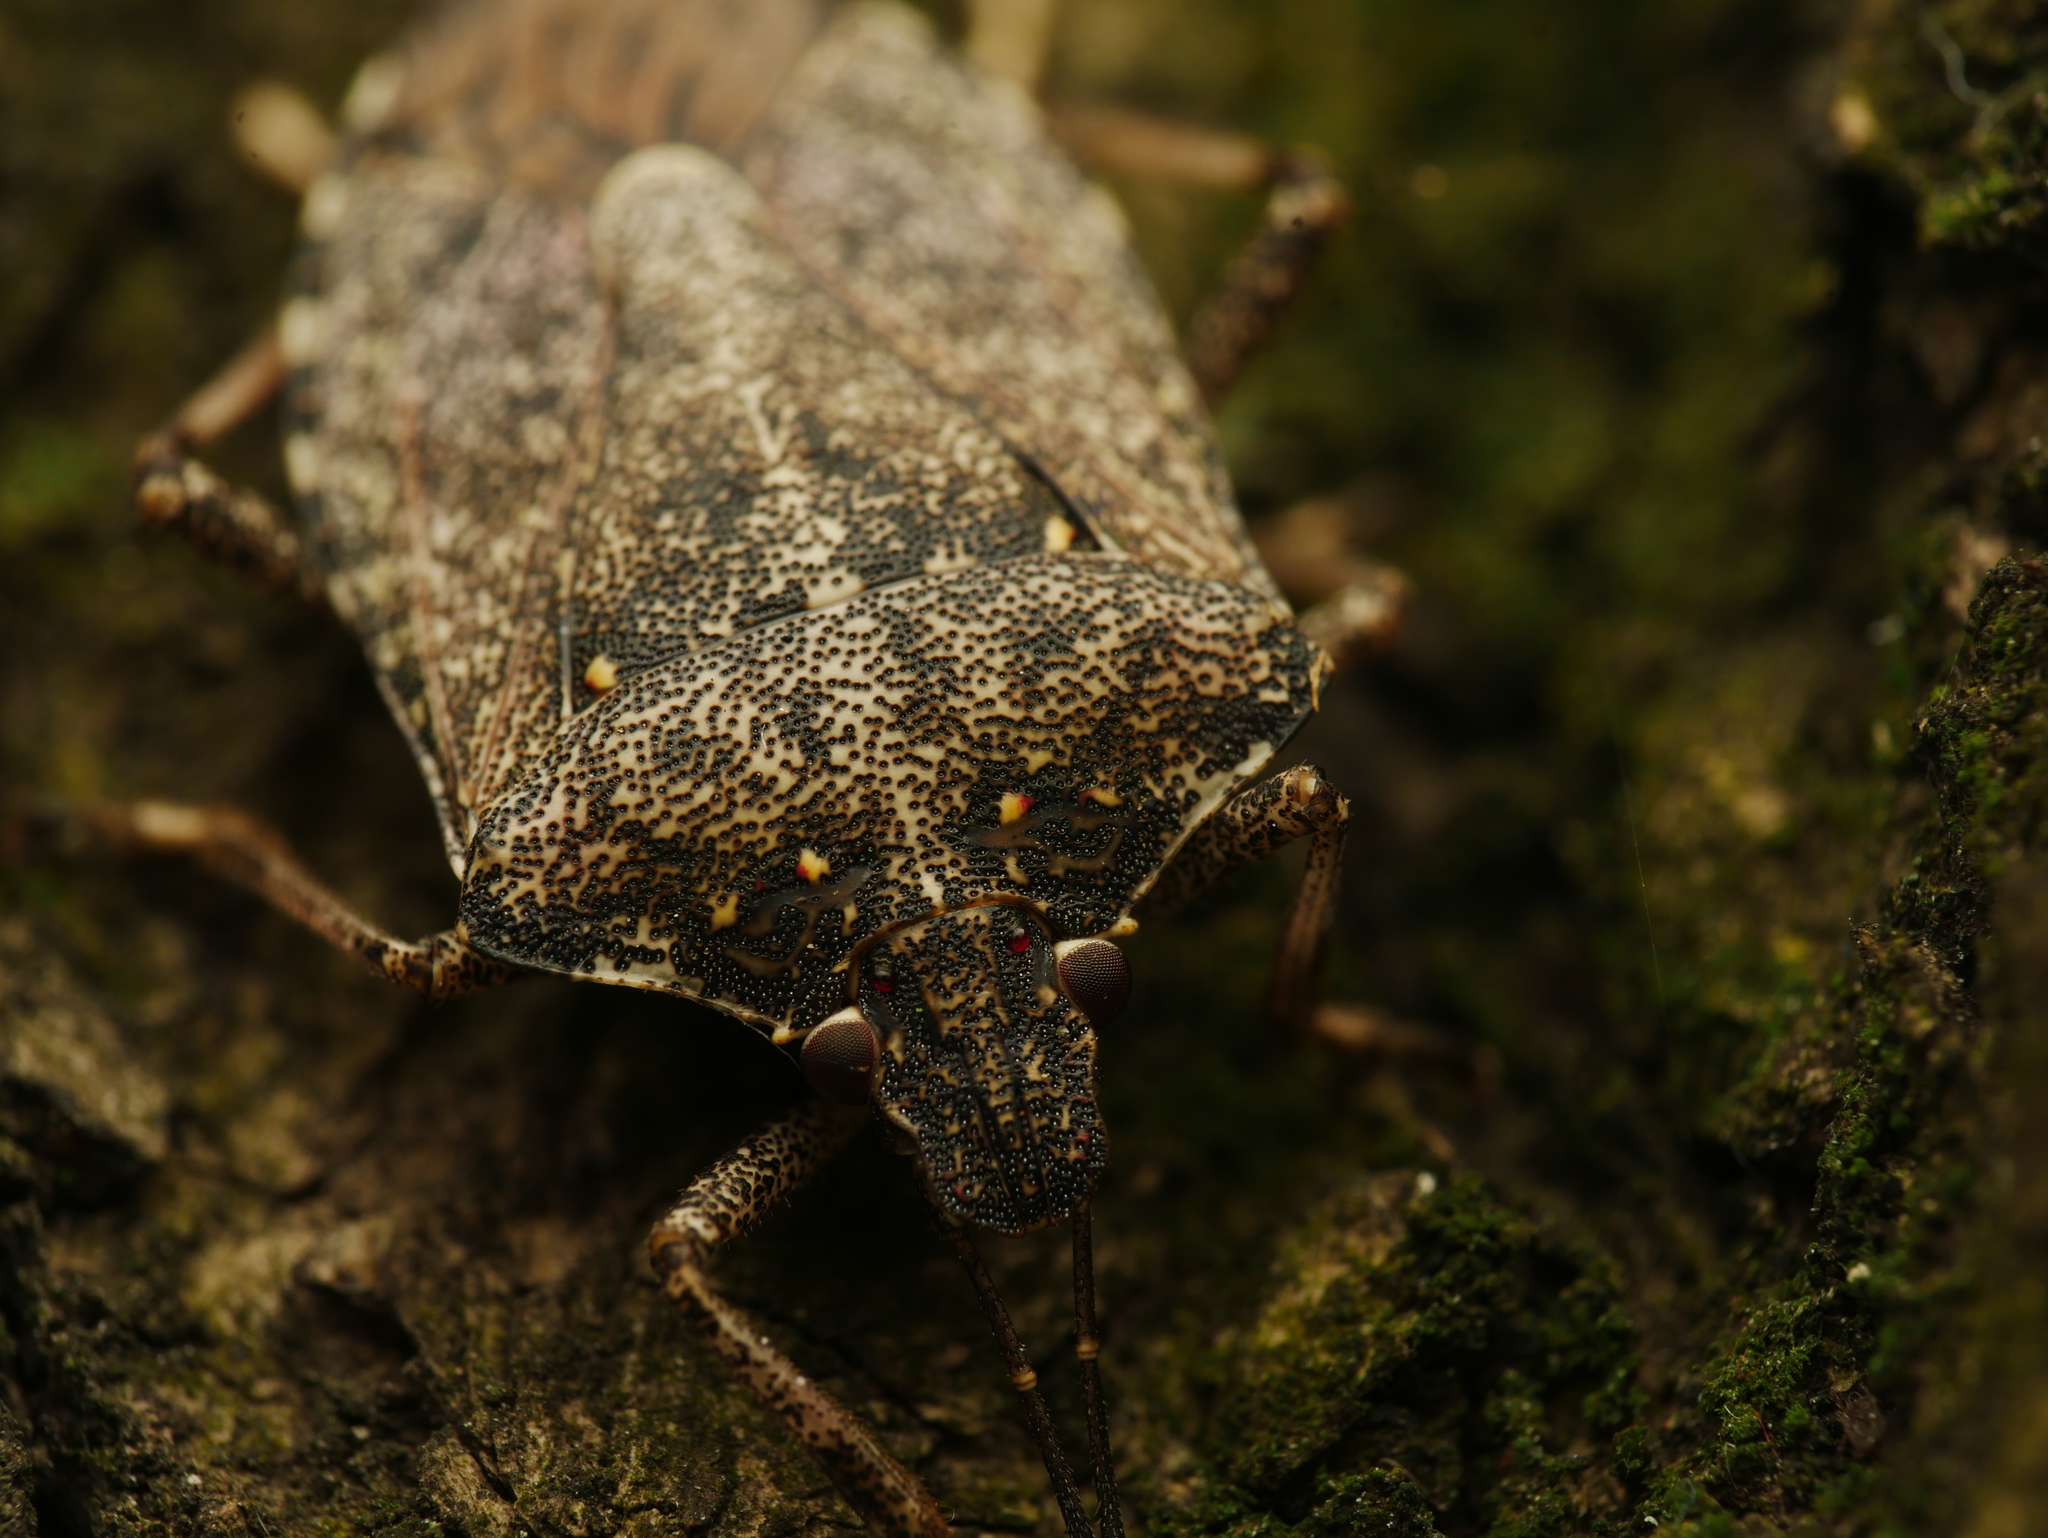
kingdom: Animalia
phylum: Arthropoda
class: Insecta
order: Hemiptera
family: Pentatomidae
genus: Halyomorpha
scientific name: Halyomorpha halys
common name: Brown marmorated stink bug
